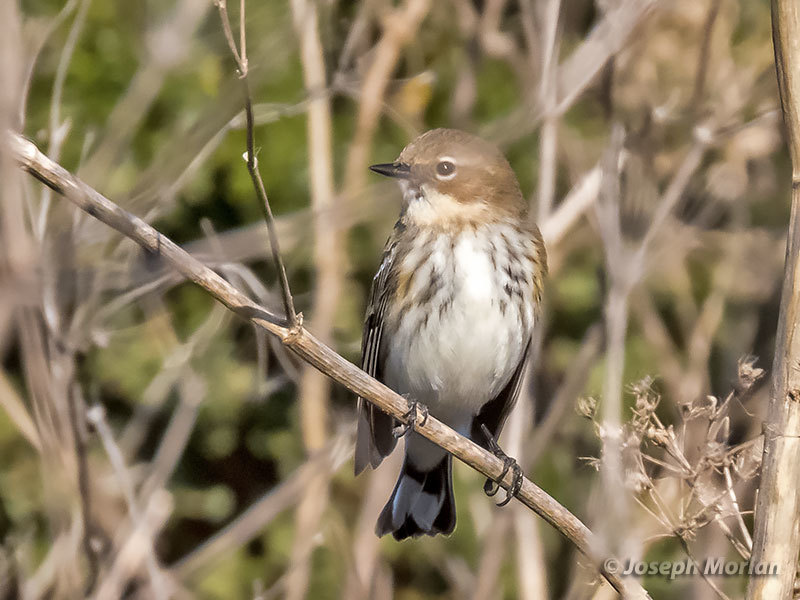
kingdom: Animalia
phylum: Chordata
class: Aves
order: Passeriformes
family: Parulidae
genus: Setophaga
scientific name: Setophaga coronata
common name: Myrtle warbler
